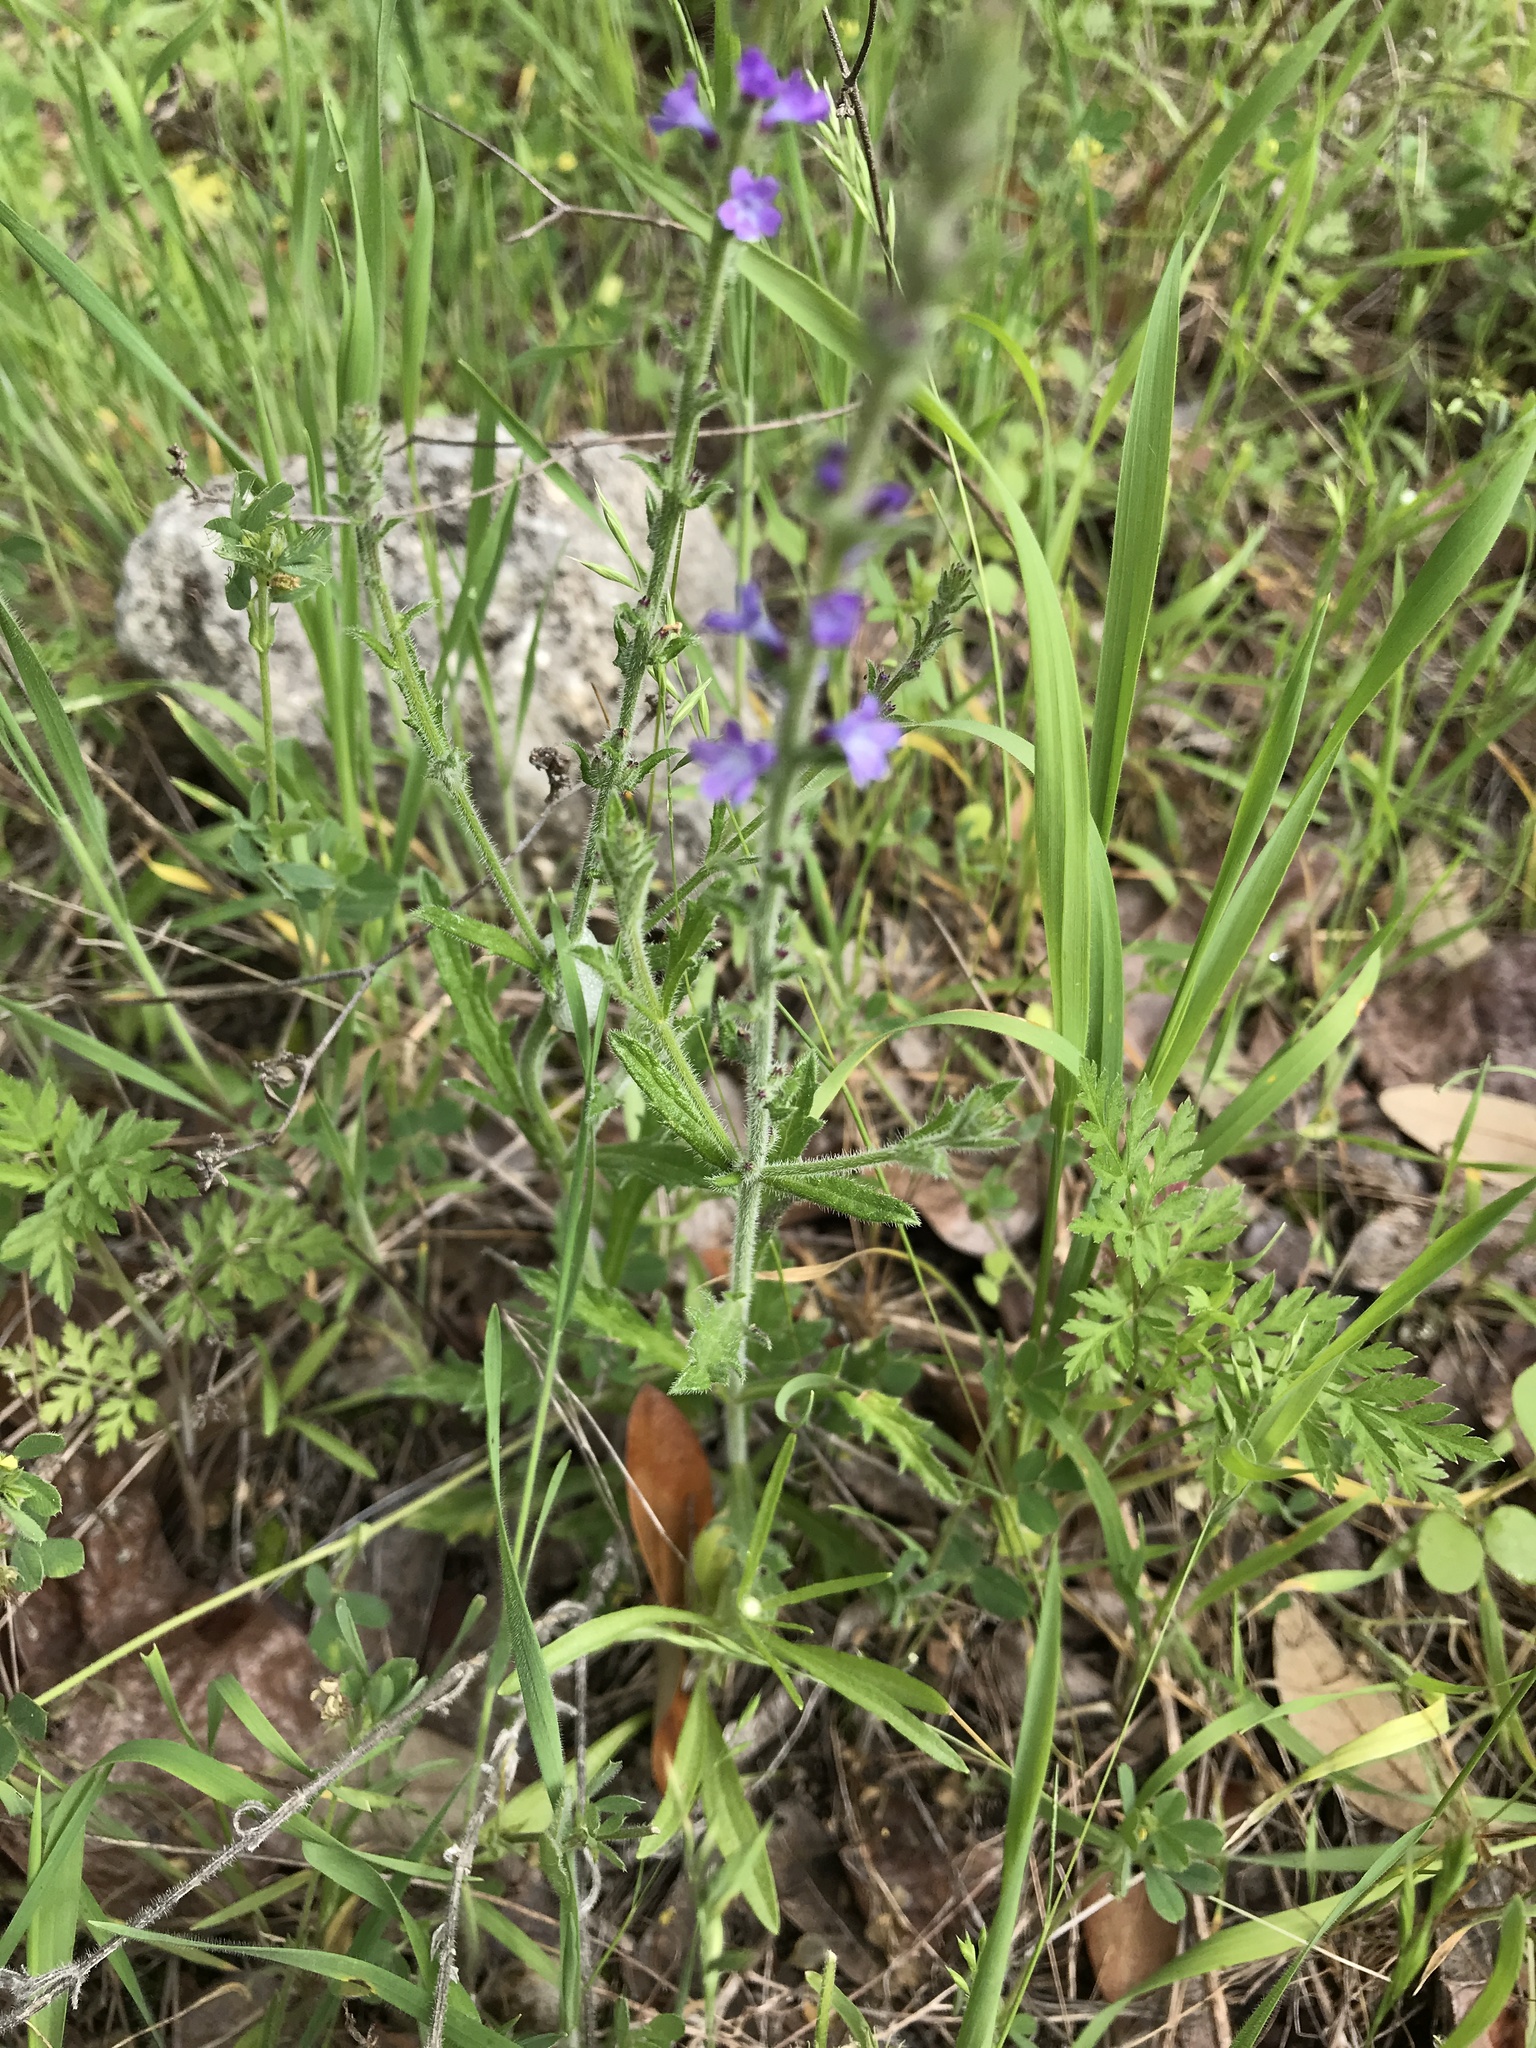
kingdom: Plantae
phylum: Tracheophyta
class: Magnoliopsida
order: Lamiales
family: Verbenaceae
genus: Verbena
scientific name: Verbena canescens
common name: Gray vervain
